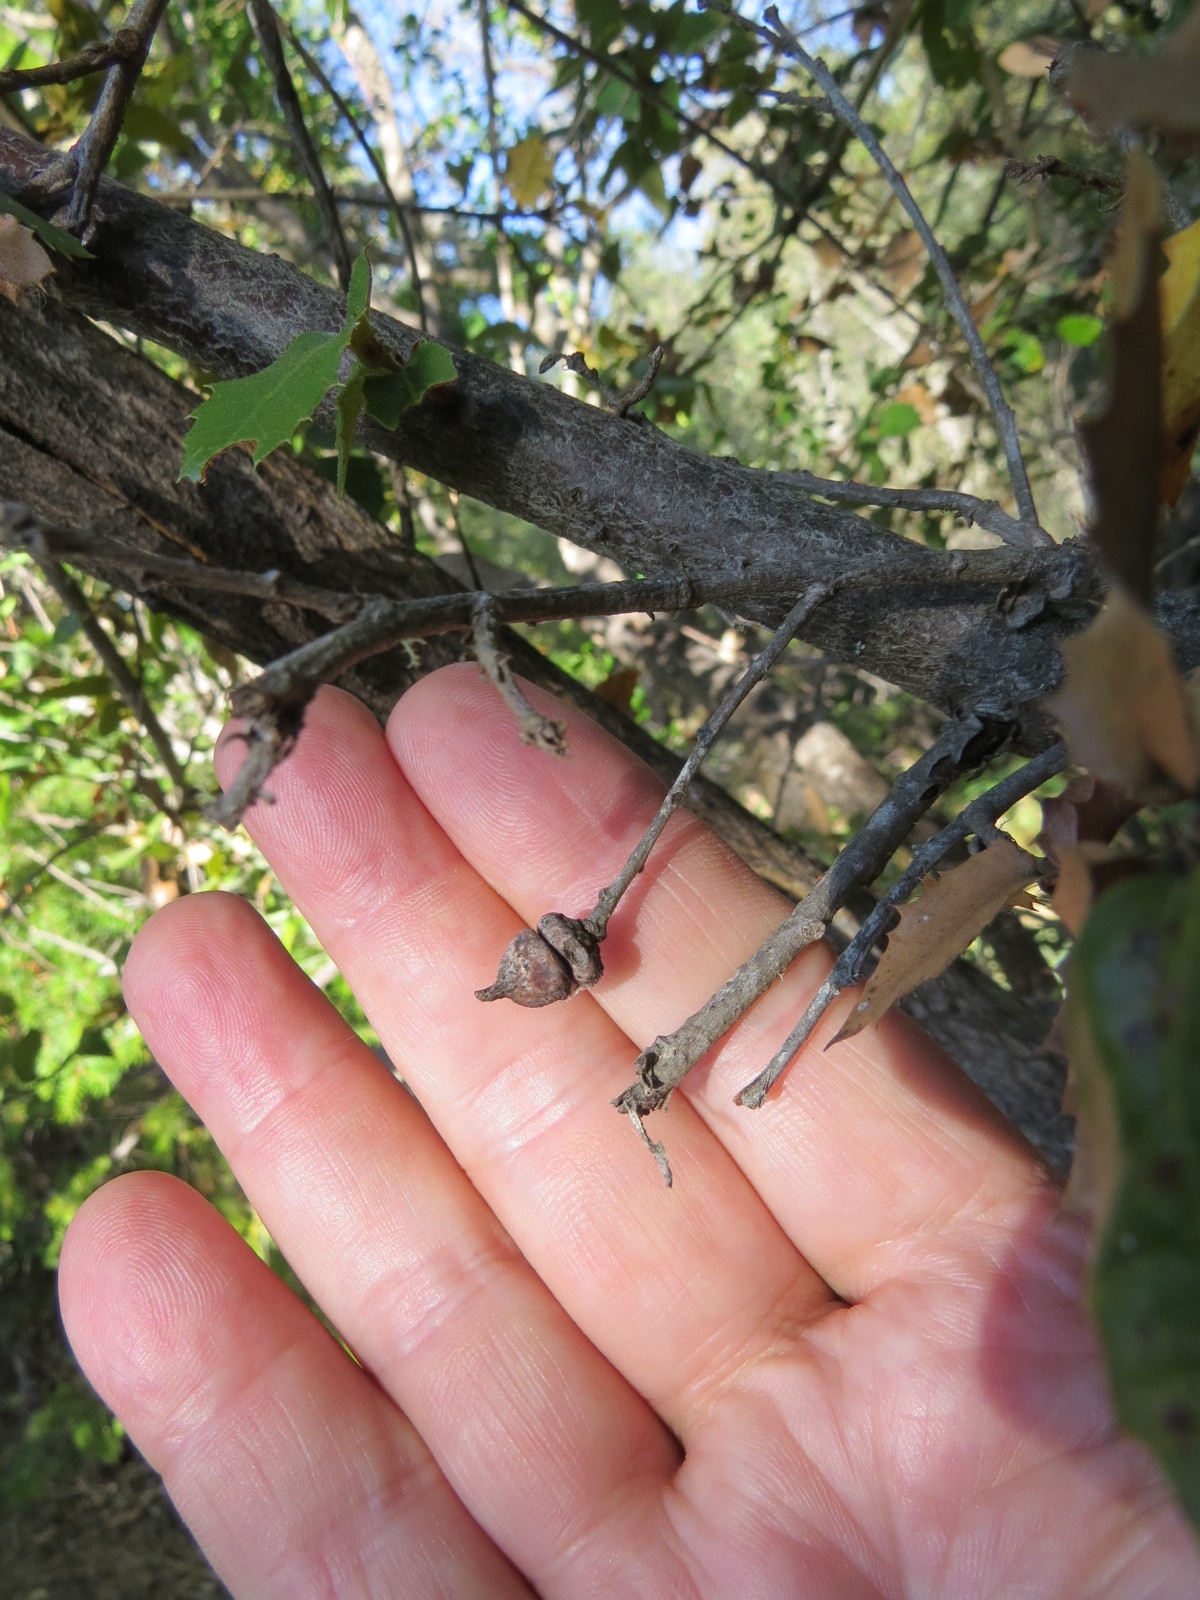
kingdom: Animalia
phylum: Arthropoda
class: Insecta
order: Hymenoptera
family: Cynipidae
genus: Heteroecus
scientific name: Heteroecus
